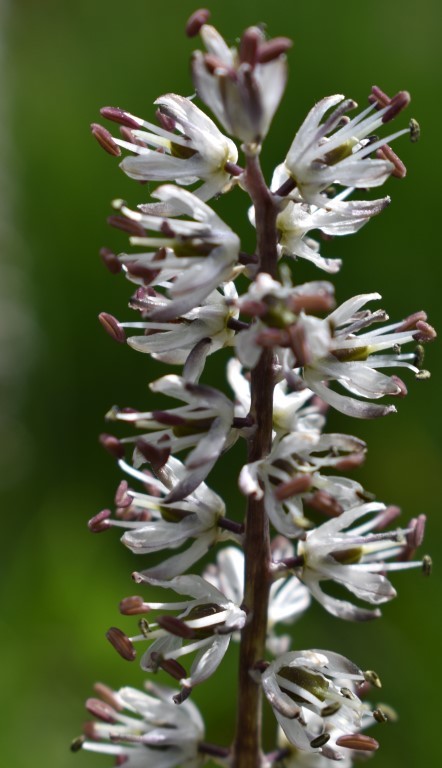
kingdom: Plantae
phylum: Tracheophyta
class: Liliopsida
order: Asparagales
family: Asparagaceae
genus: Hastingsia
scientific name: Hastingsia alba
